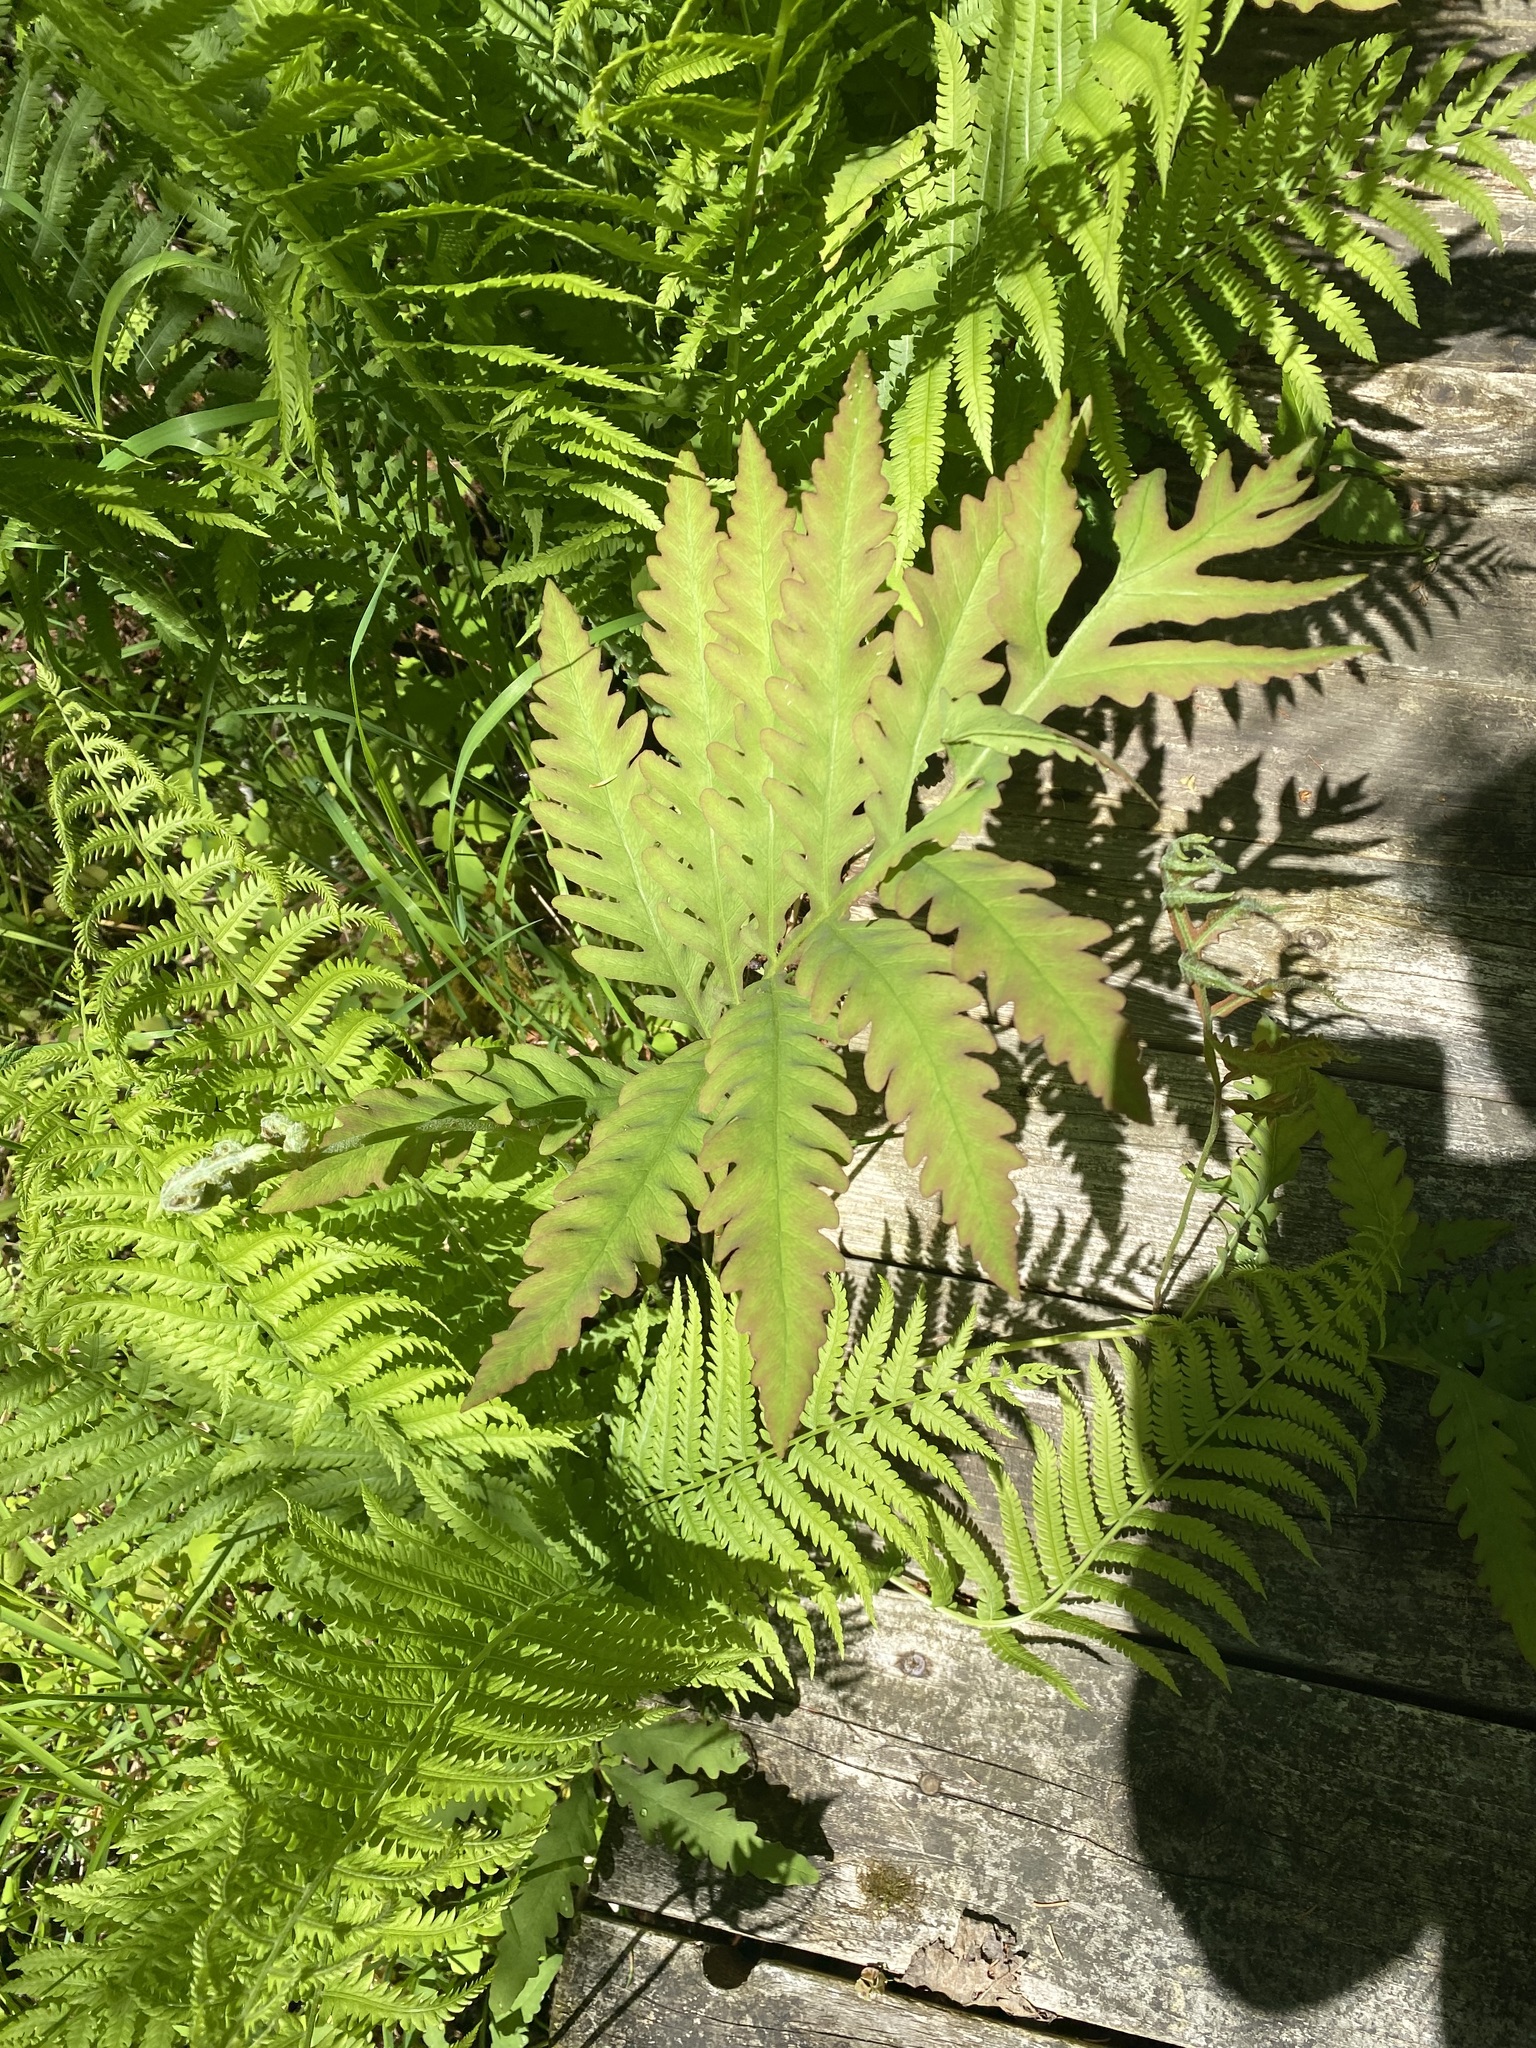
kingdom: Plantae
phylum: Tracheophyta
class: Polypodiopsida
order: Polypodiales
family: Onocleaceae
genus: Onoclea
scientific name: Onoclea sensibilis
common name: Sensitive fern
